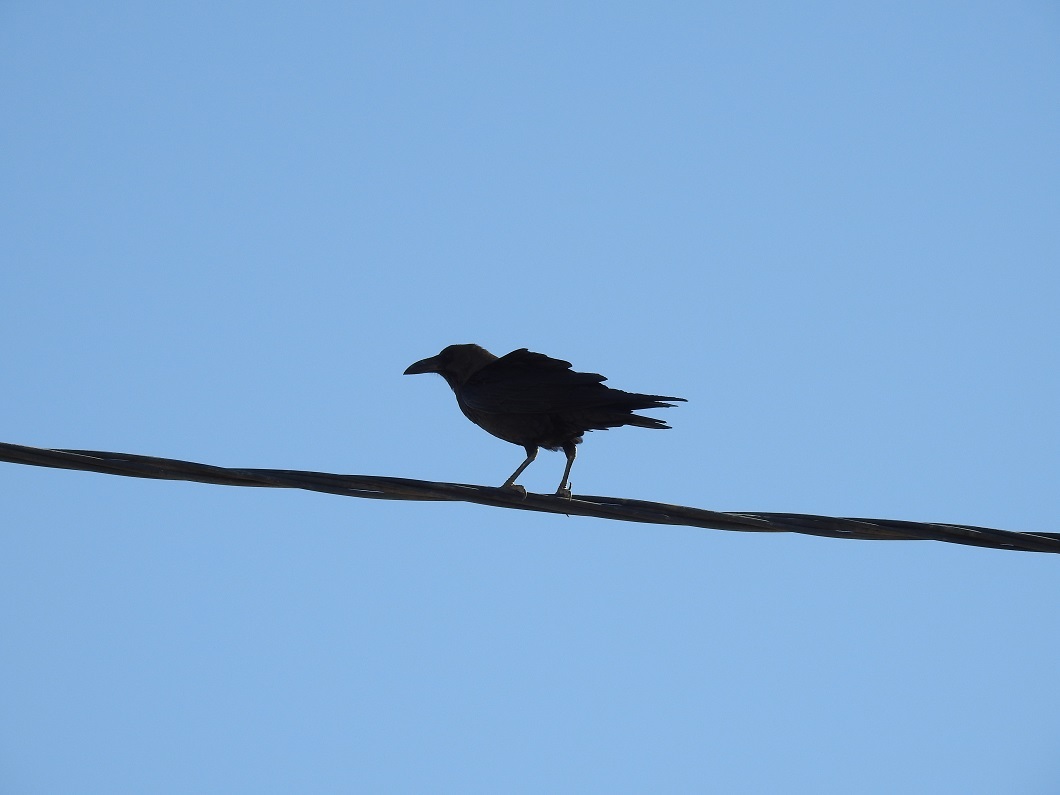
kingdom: Animalia
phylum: Chordata
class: Aves
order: Passeriformes
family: Corvidae
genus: Corvus
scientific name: Corvus ruficollis
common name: Brown-necked raven
